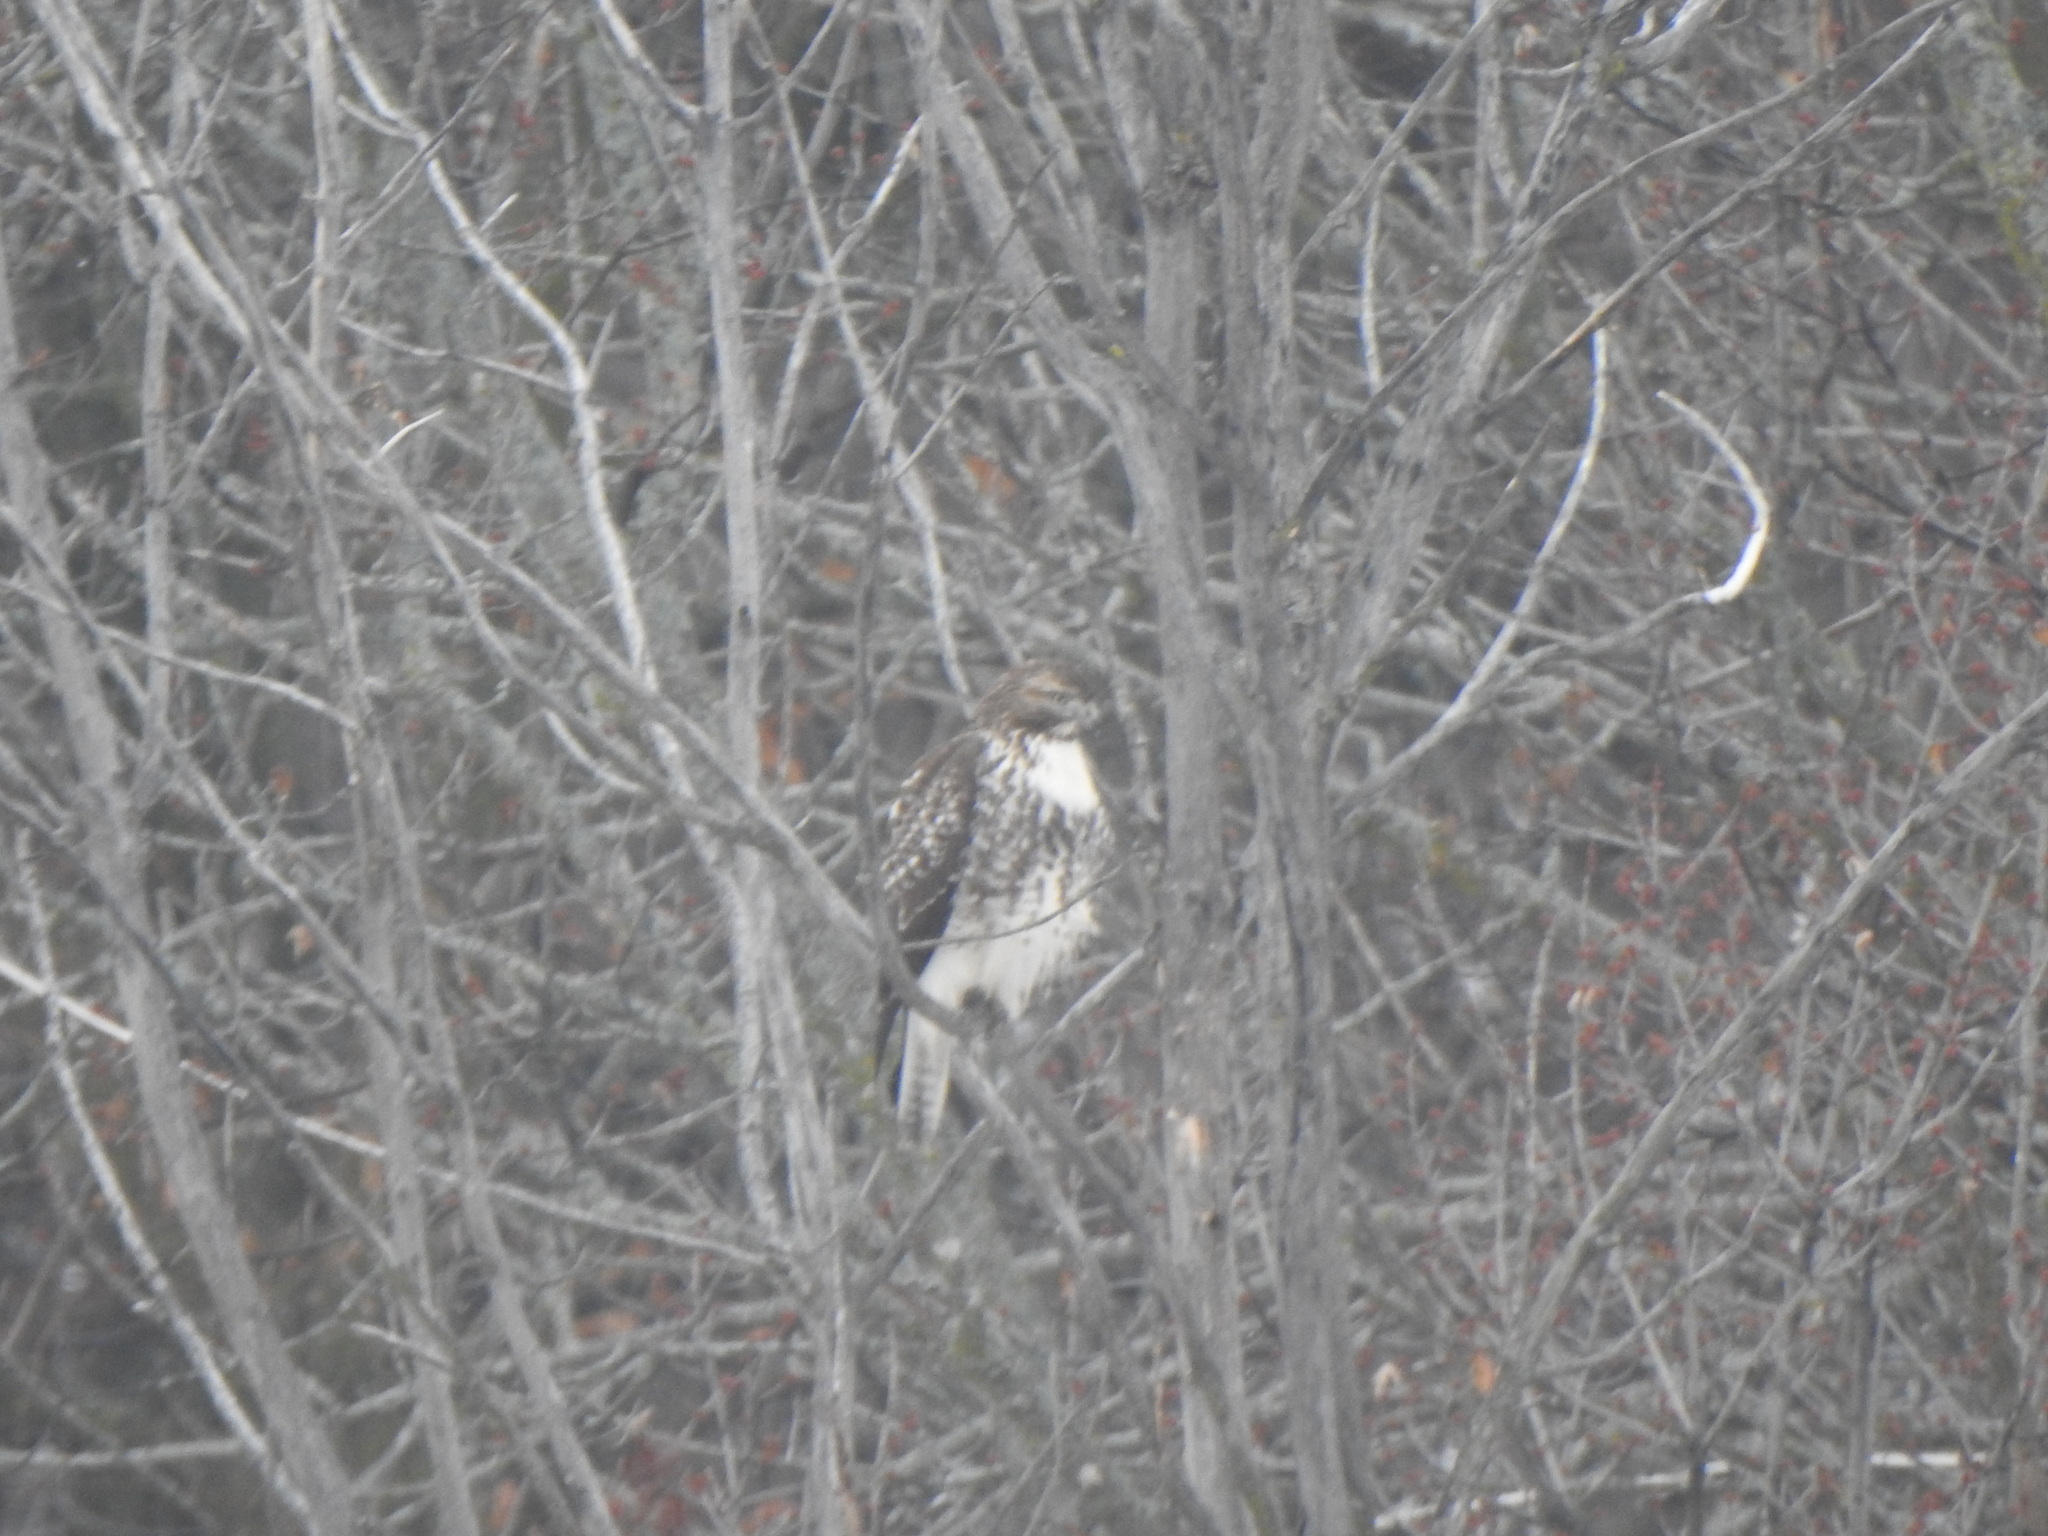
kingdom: Animalia
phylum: Chordata
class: Aves
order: Accipitriformes
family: Accipitridae
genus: Buteo
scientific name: Buteo jamaicensis
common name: Red-tailed hawk
